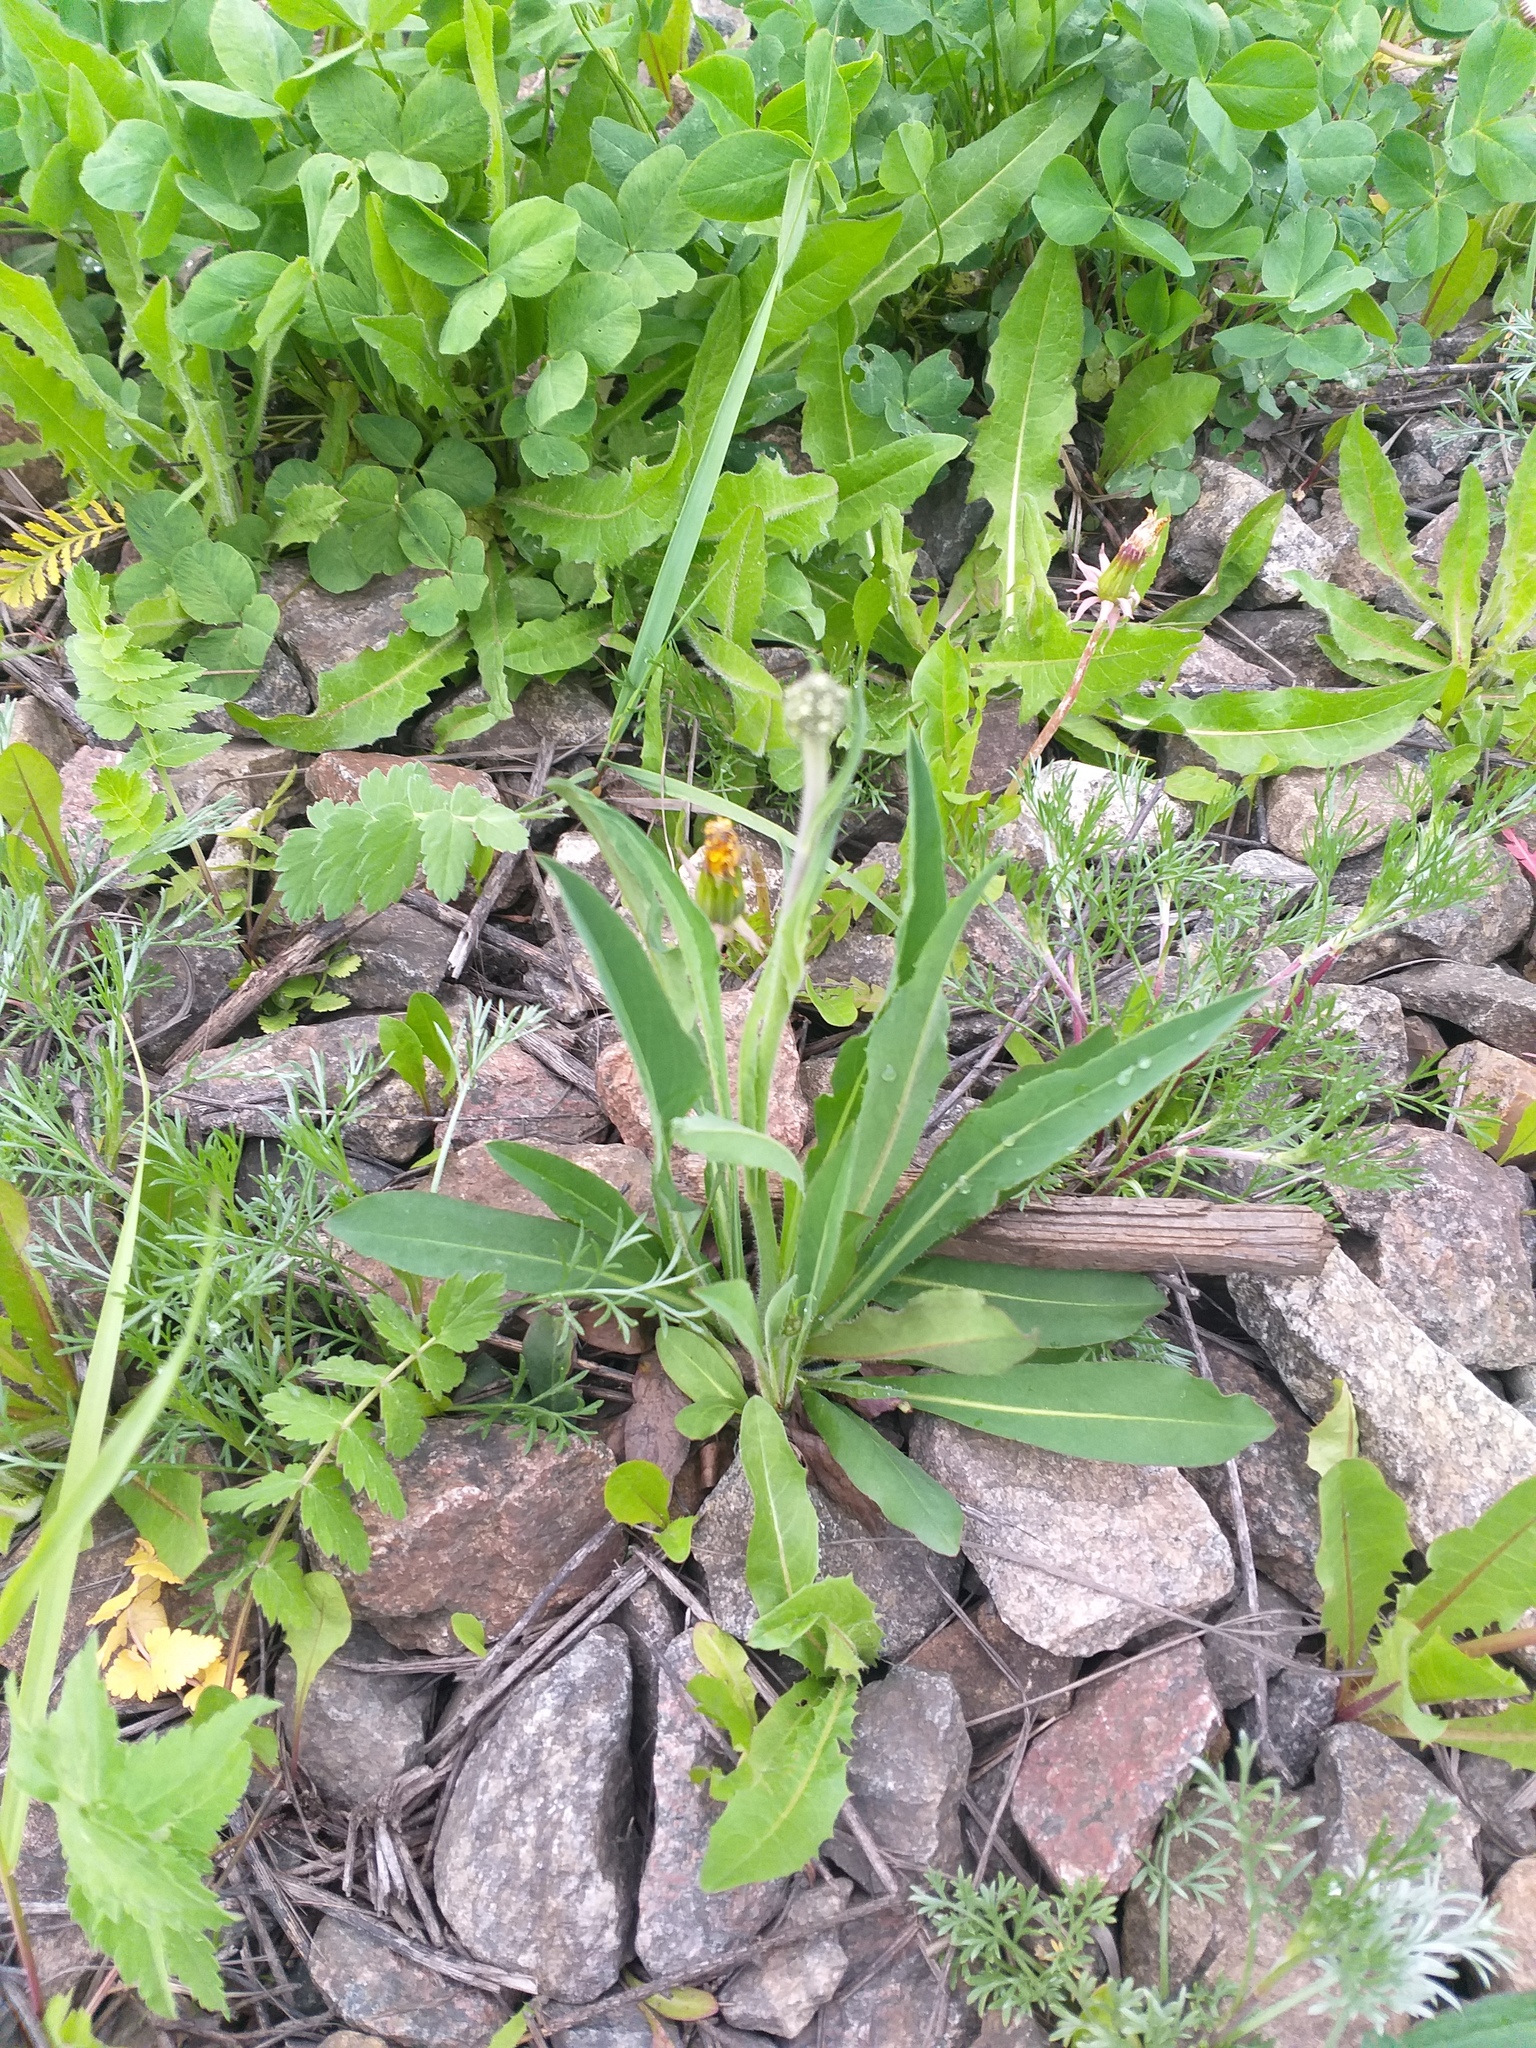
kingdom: Plantae
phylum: Tracheophyta
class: Magnoliopsida
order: Asterales
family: Asteraceae
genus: Pilosella
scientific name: Pilosella
